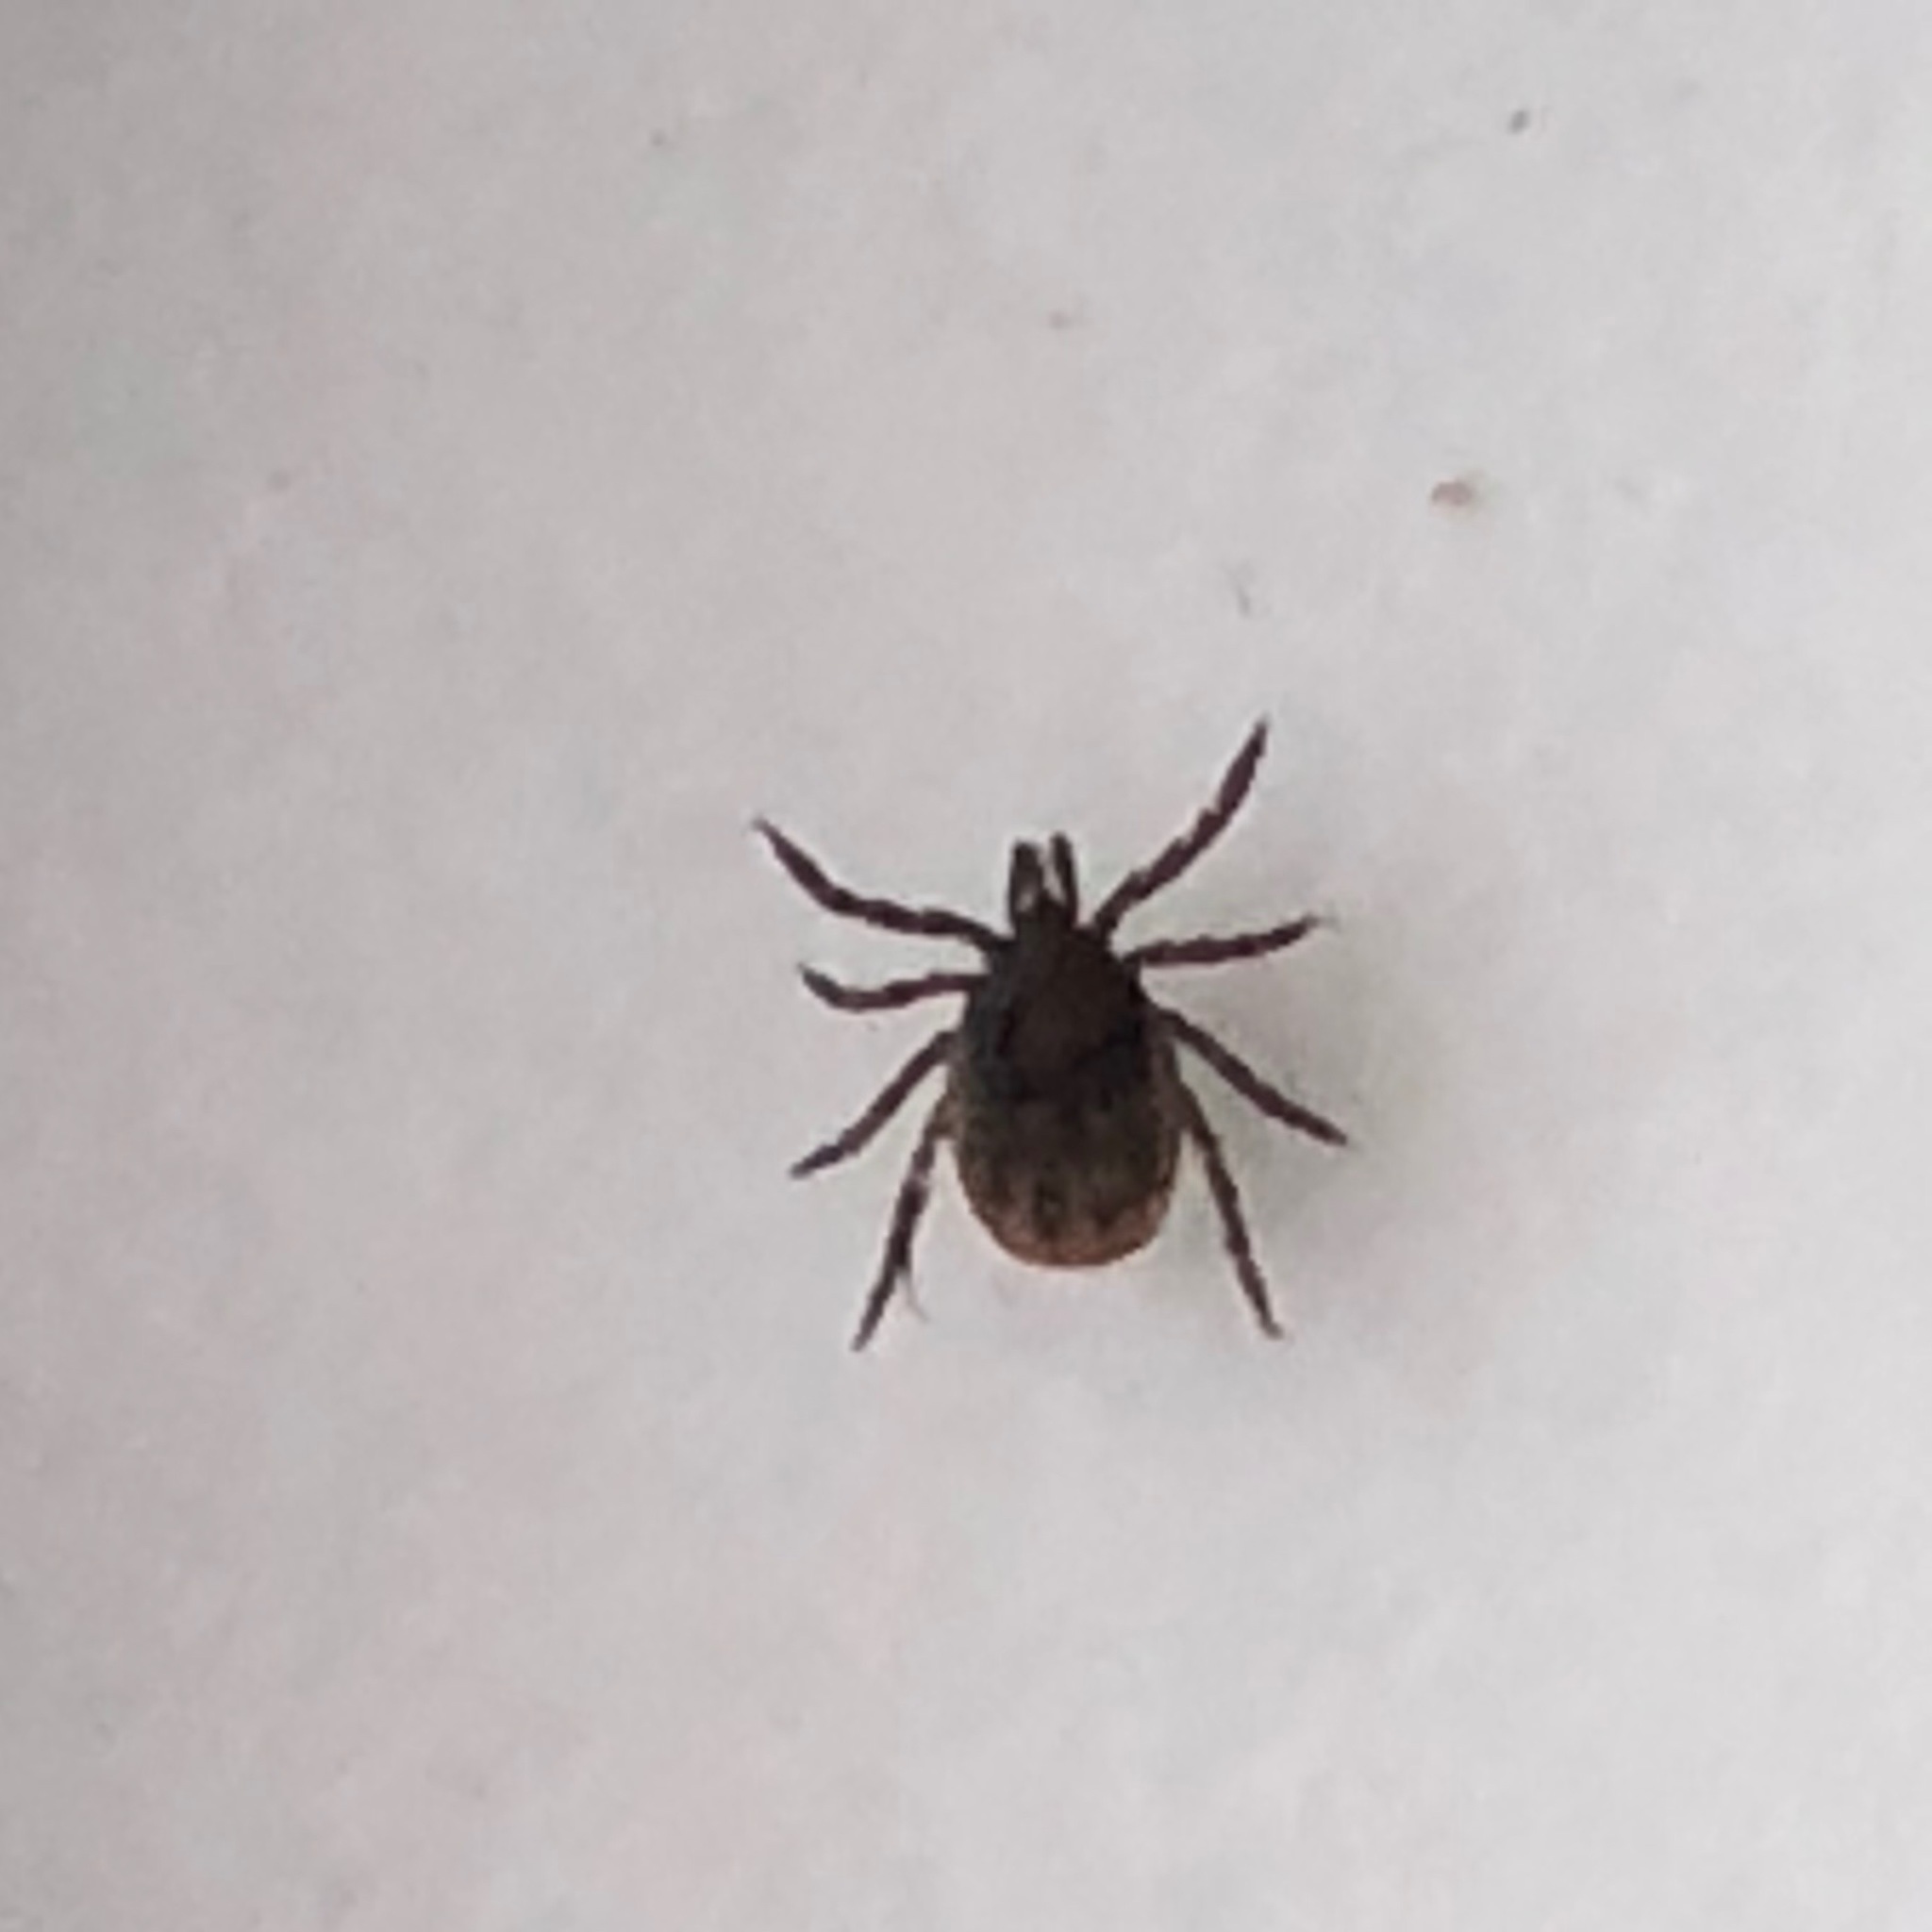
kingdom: Animalia
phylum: Arthropoda
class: Arachnida
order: Ixodida
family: Ixodidae
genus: Ixodes
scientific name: Ixodes ricinus
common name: Castor bean tick
